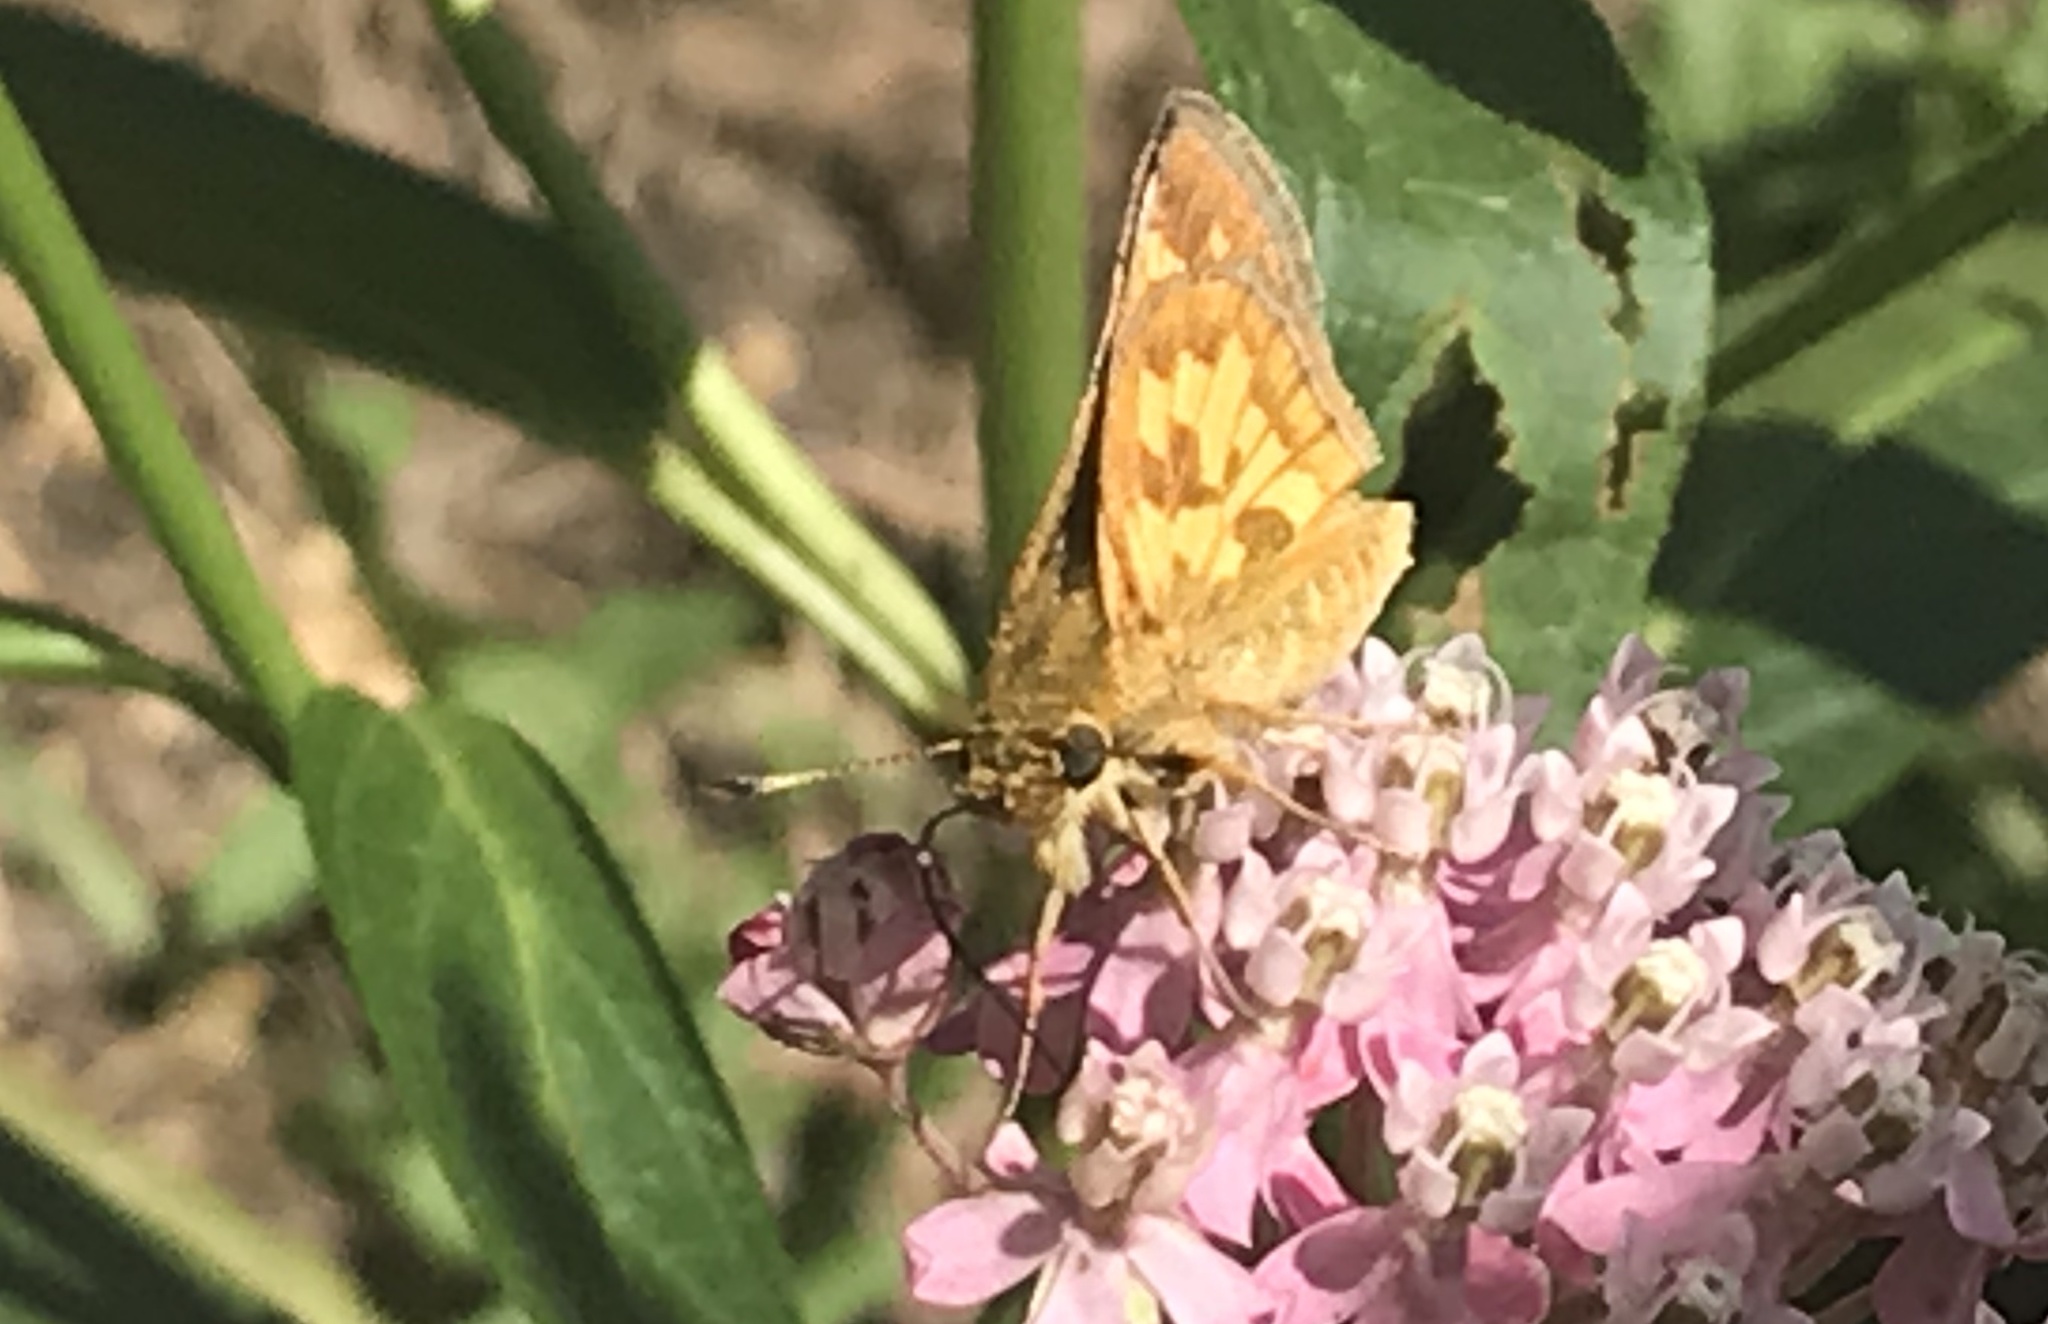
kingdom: Animalia
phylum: Arthropoda
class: Insecta
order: Lepidoptera
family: Hesperiidae
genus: Polites
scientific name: Polites coras
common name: Peck's skipper
